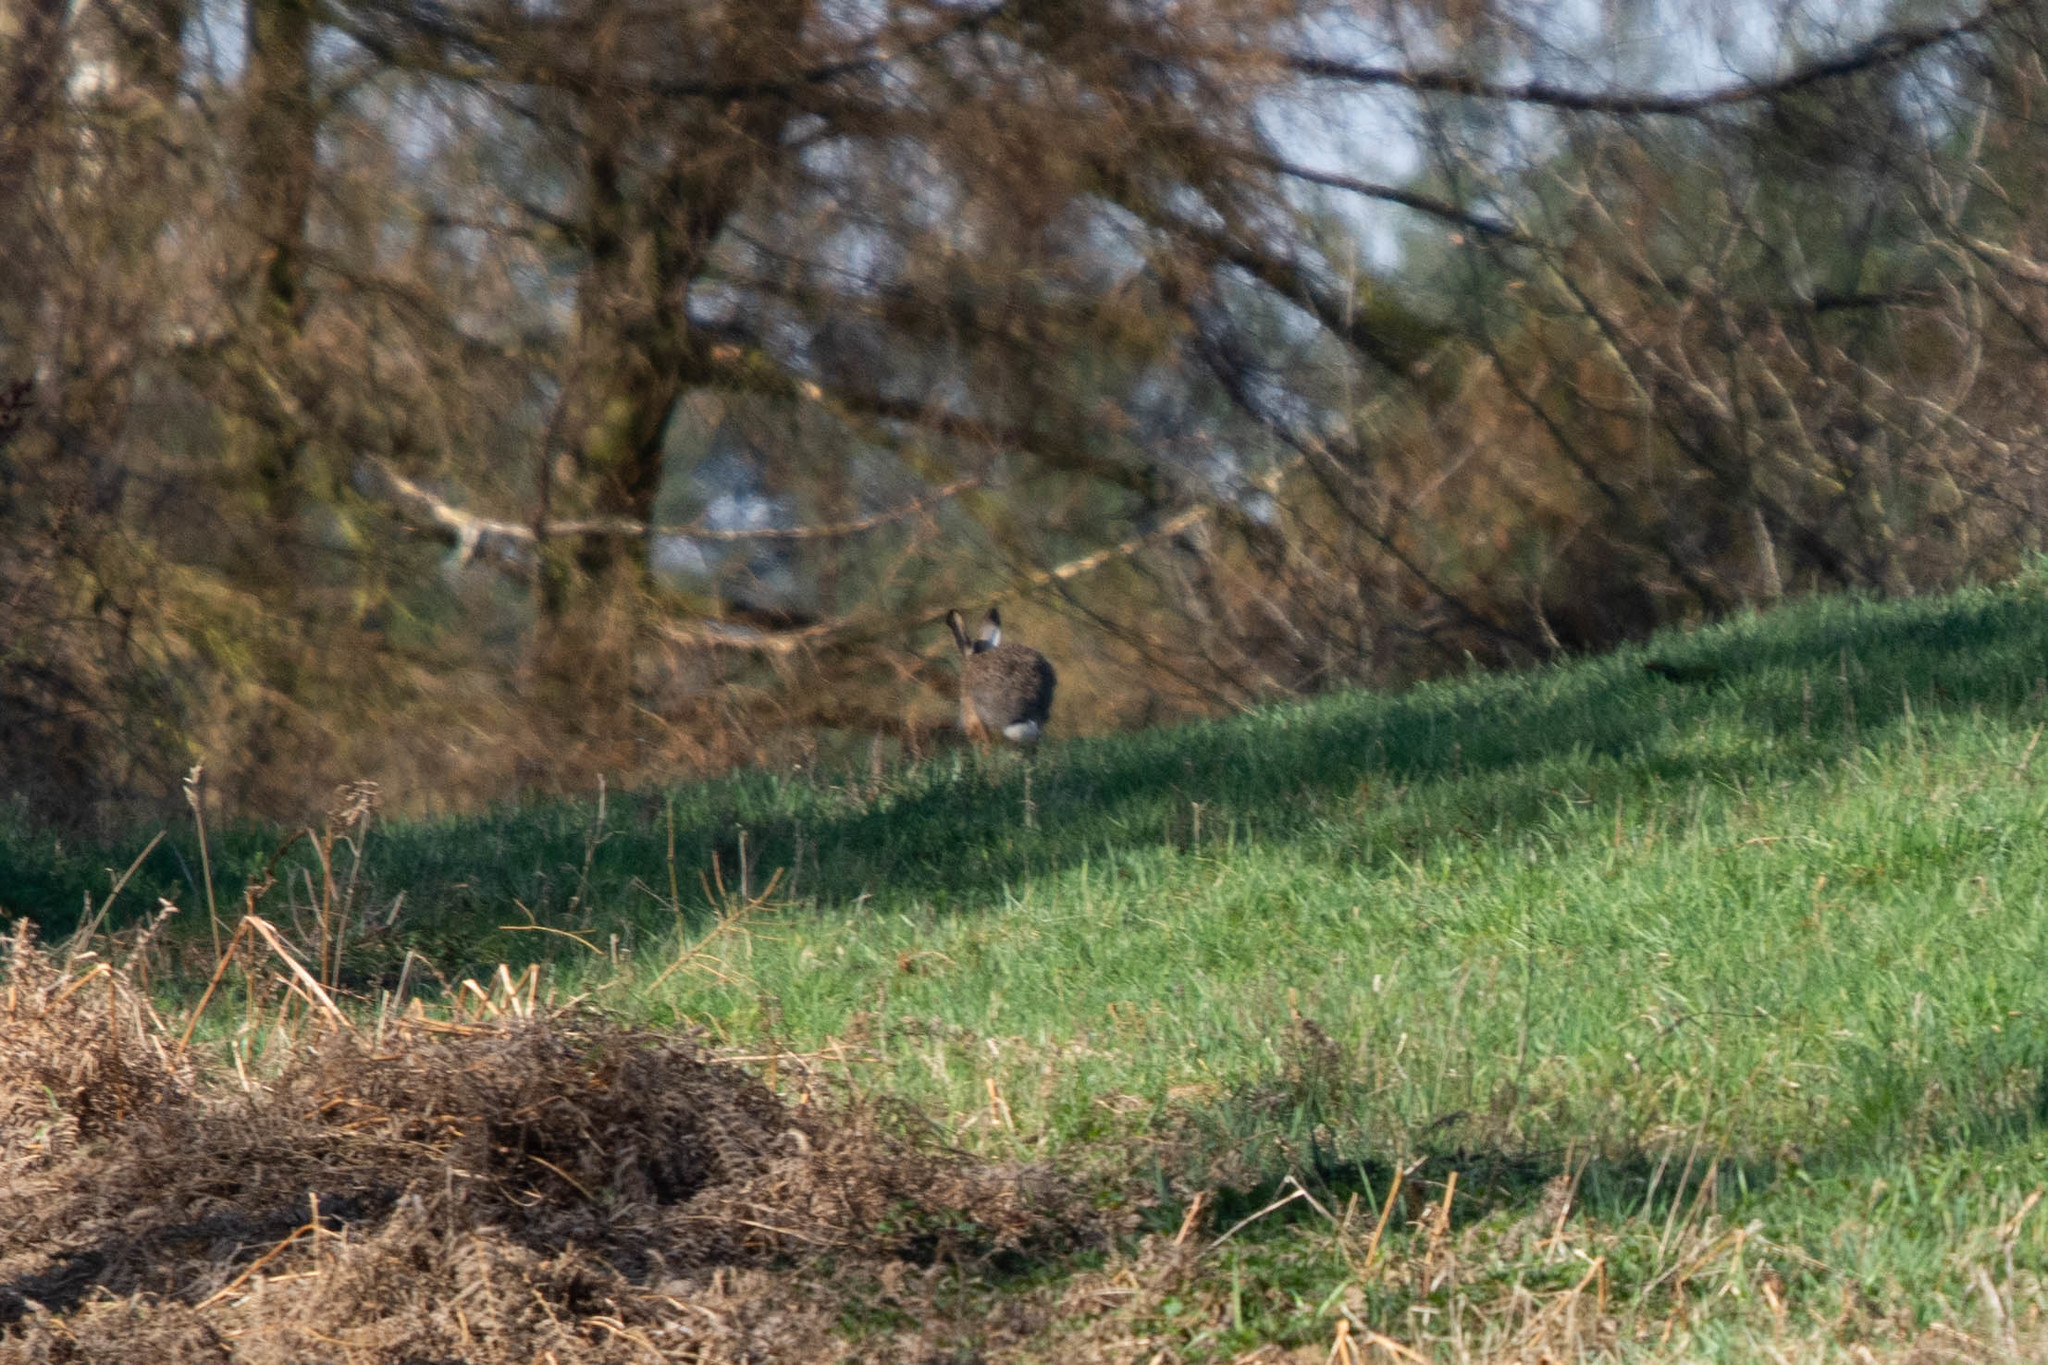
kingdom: Animalia
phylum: Chordata
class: Mammalia
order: Lagomorpha
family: Leporidae
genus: Oryctolagus
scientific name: Oryctolagus cuniculus
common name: European rabbit
